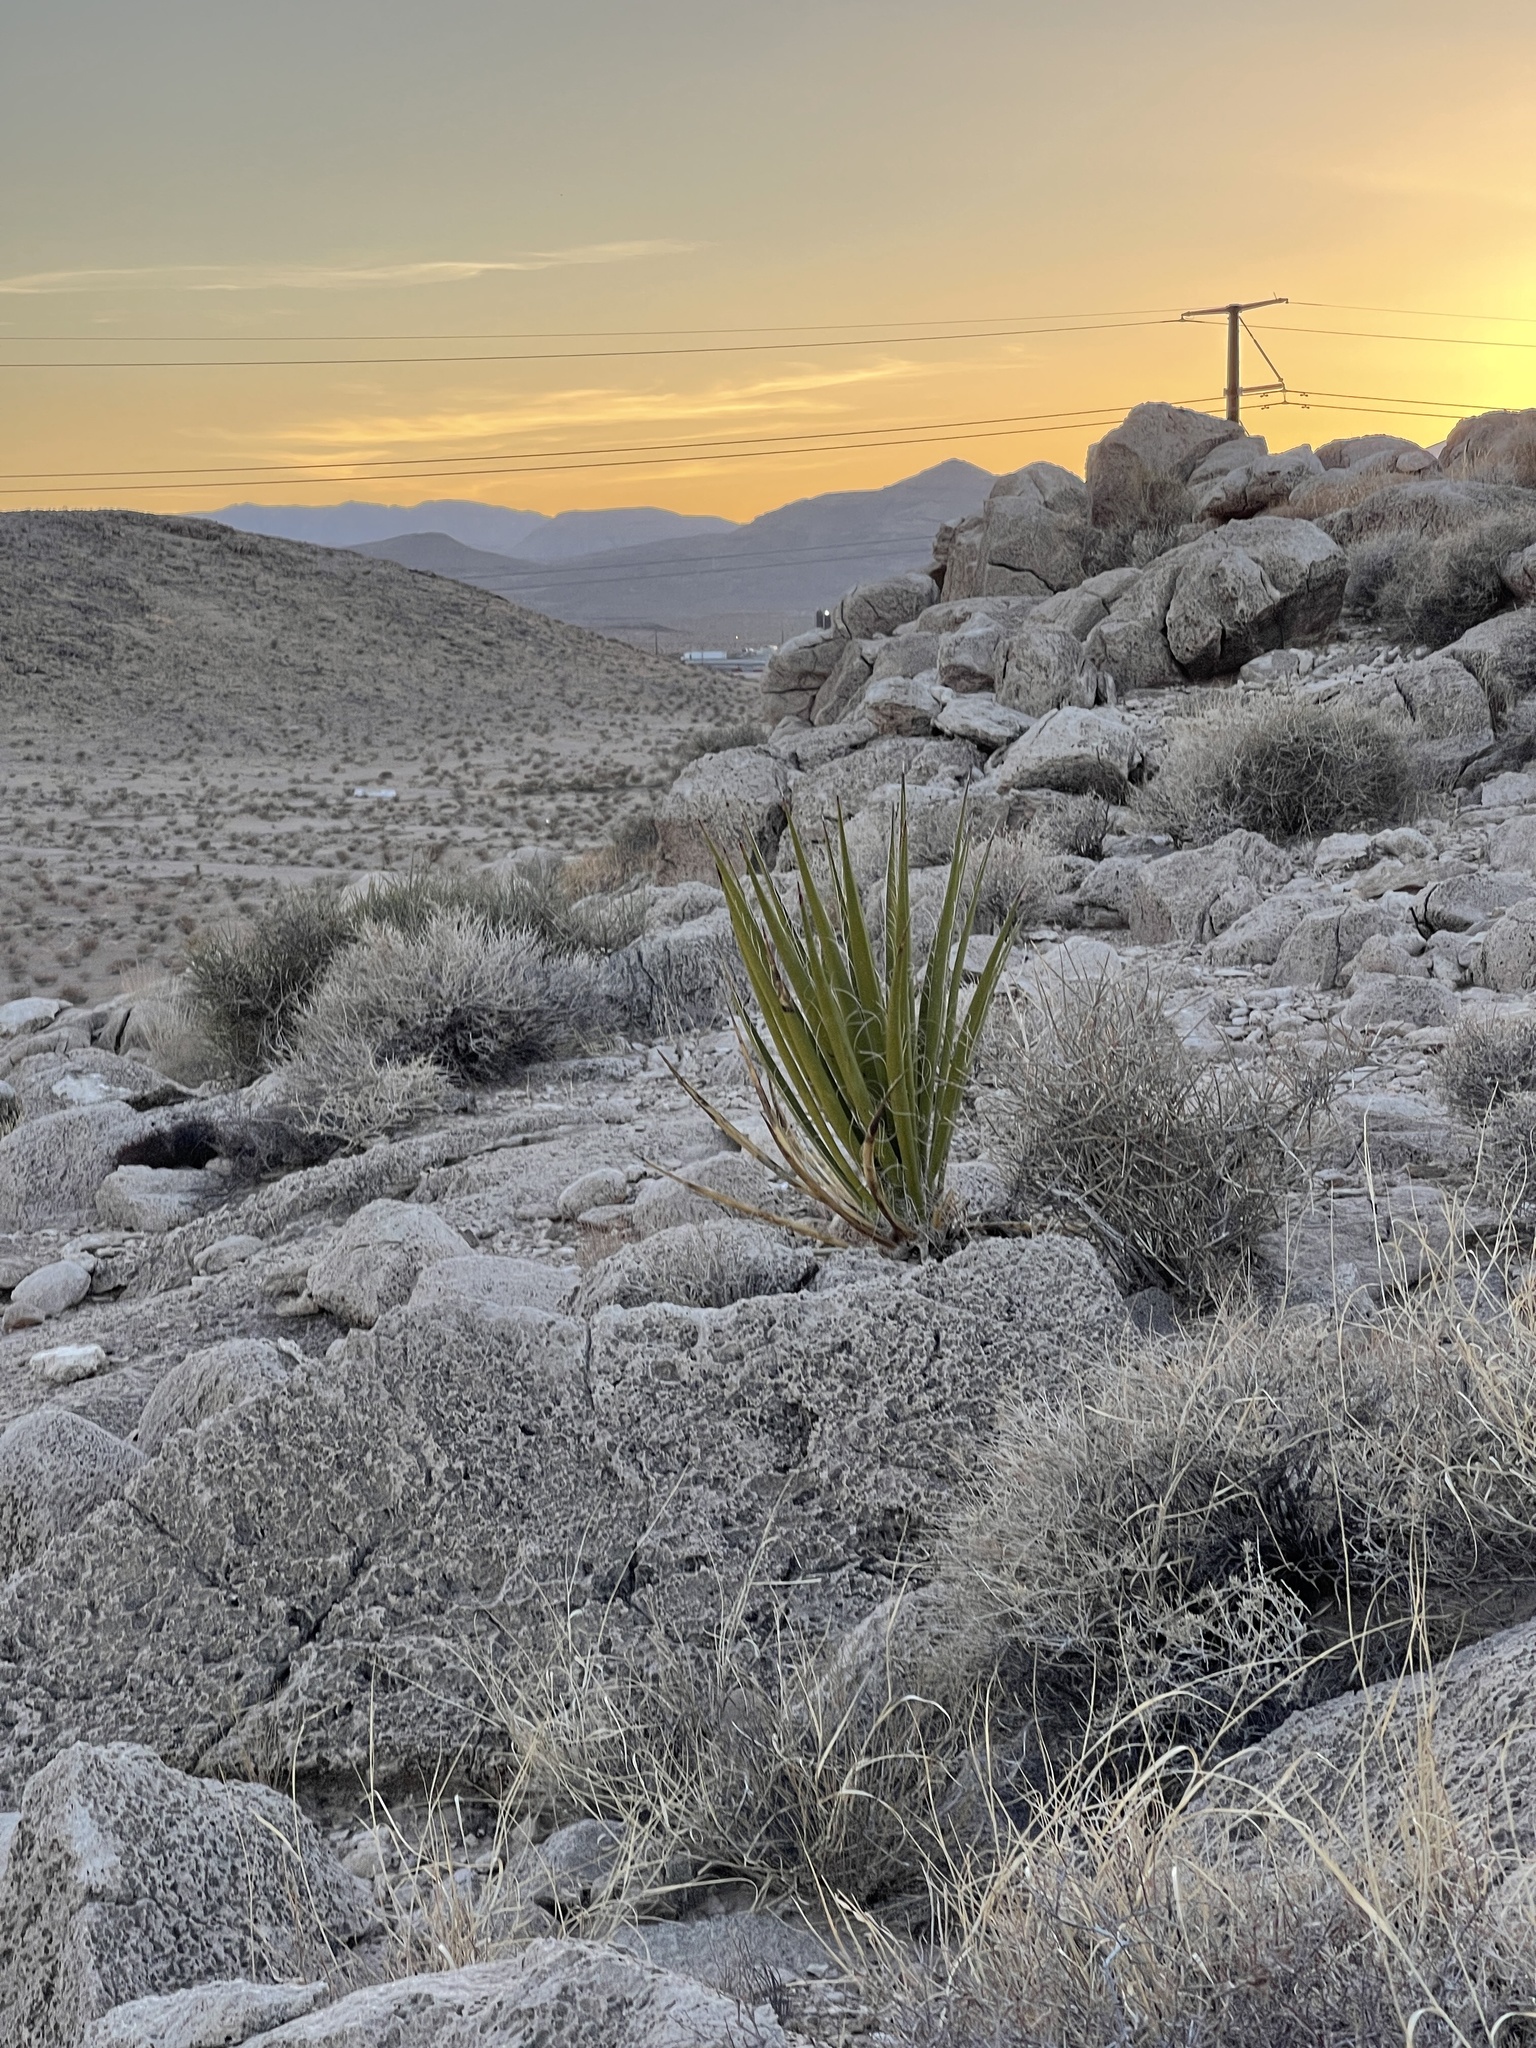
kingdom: Plantae
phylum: Tracheophyta
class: Liliopsida
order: Asparagales
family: Asparagaceae
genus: Yucca
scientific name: Yucca schidigera
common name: Mojave yucca
